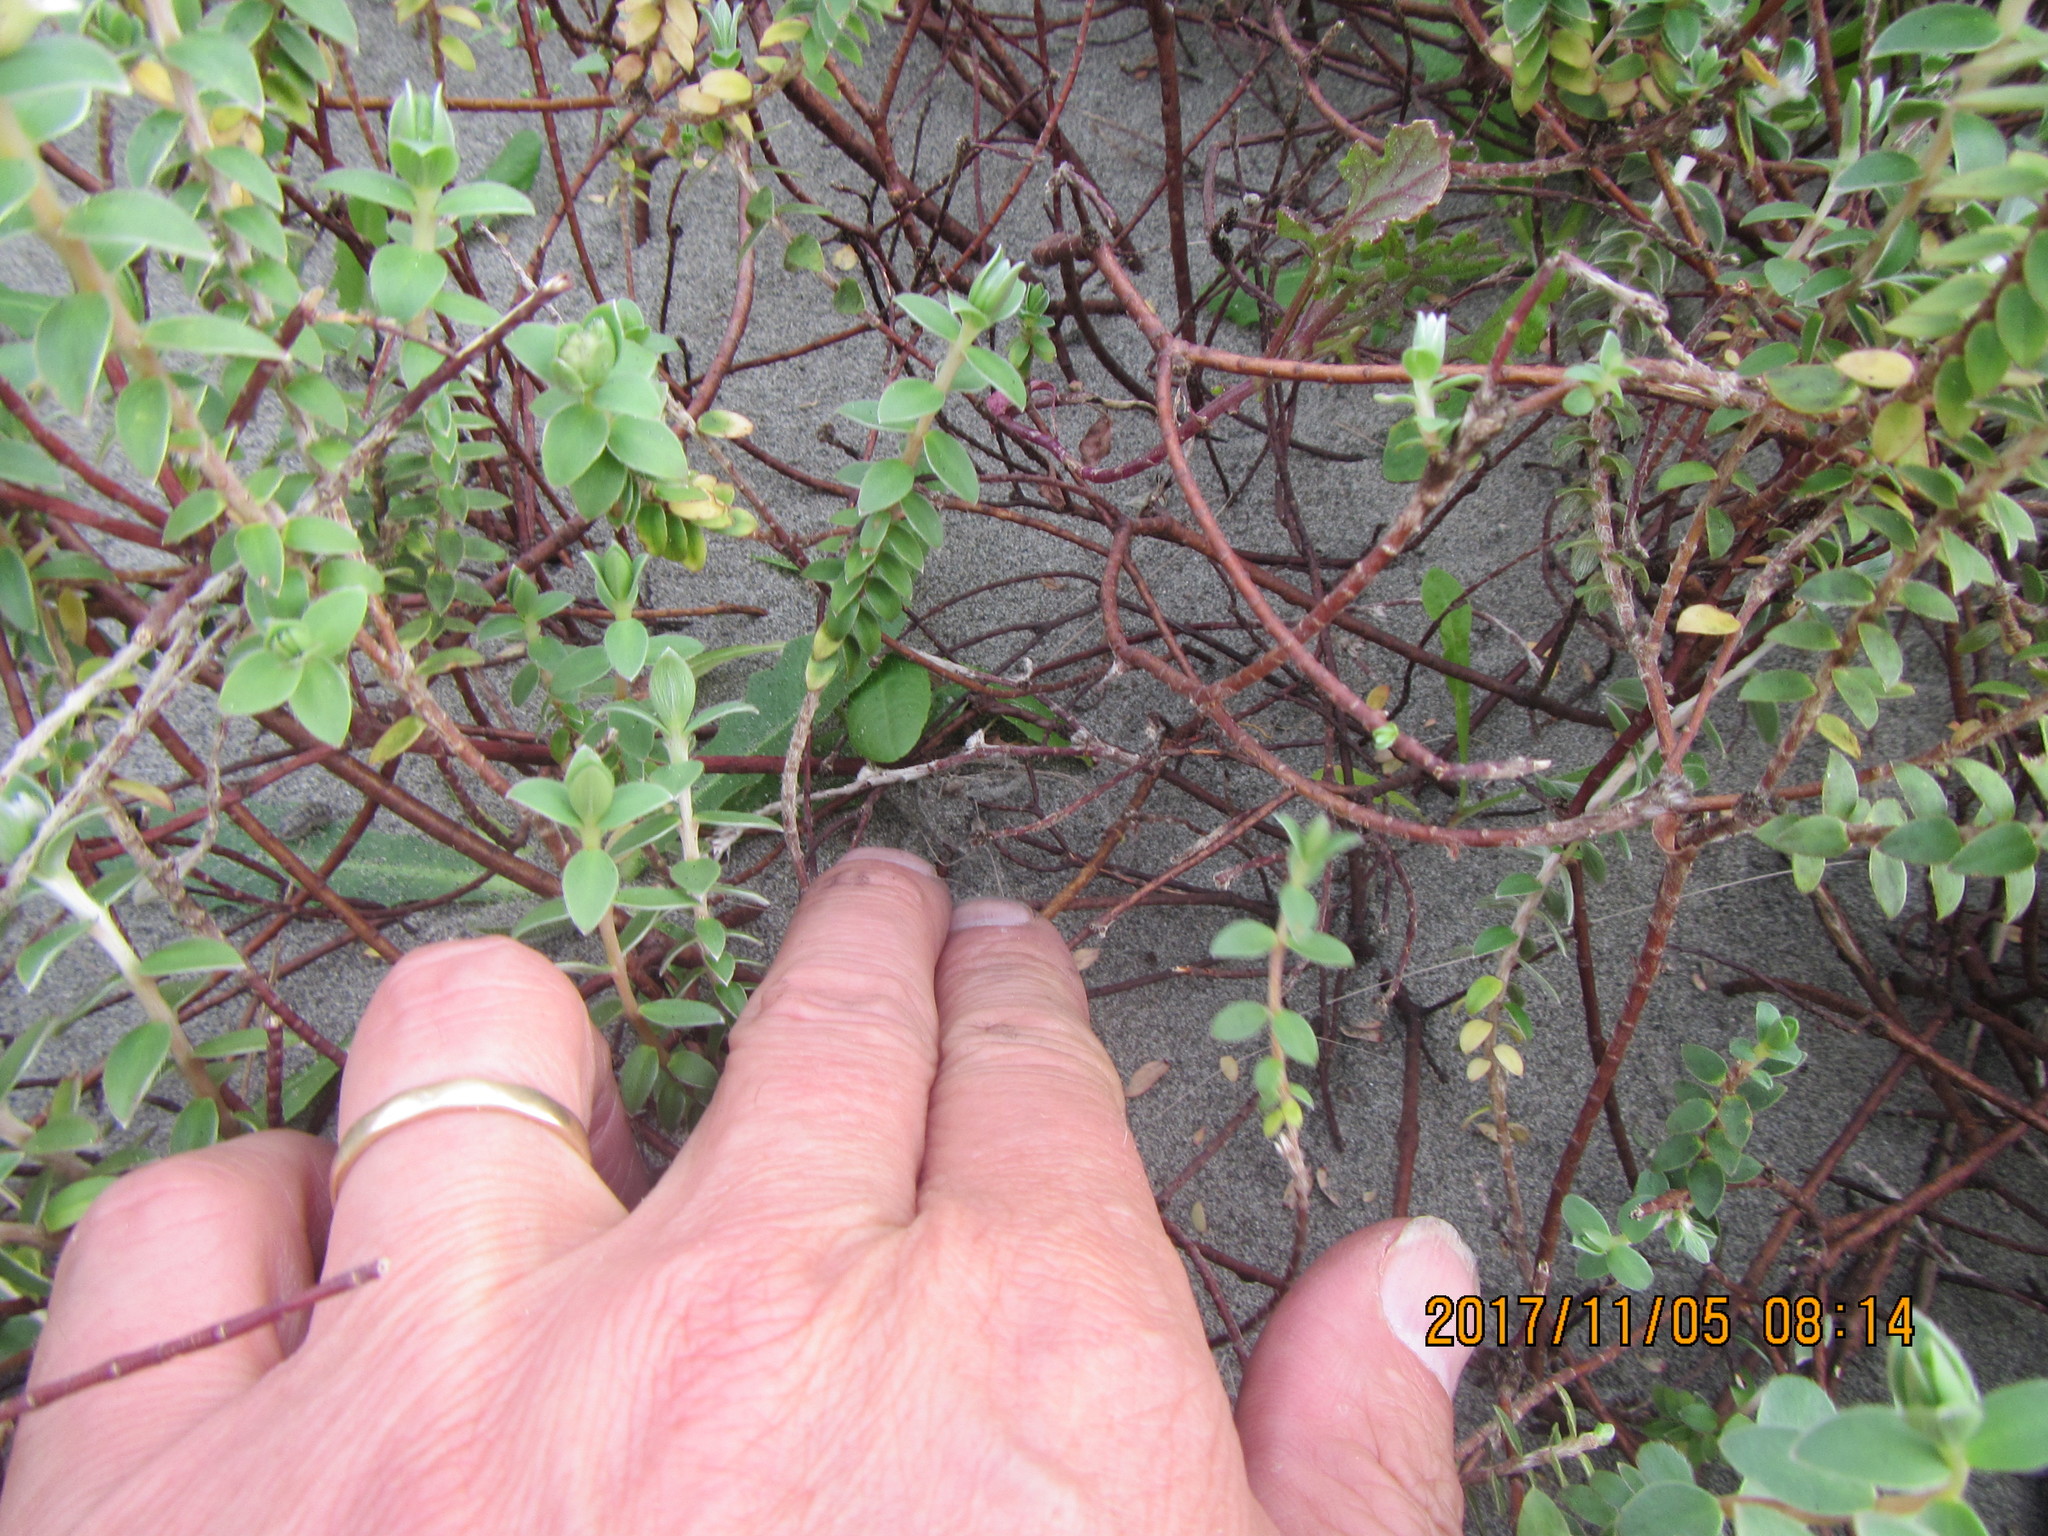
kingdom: Animalia
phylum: Arthropoda
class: Arachnida
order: Araneae
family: Theridiidae
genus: Latrodectus
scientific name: Latrodectus katipo
